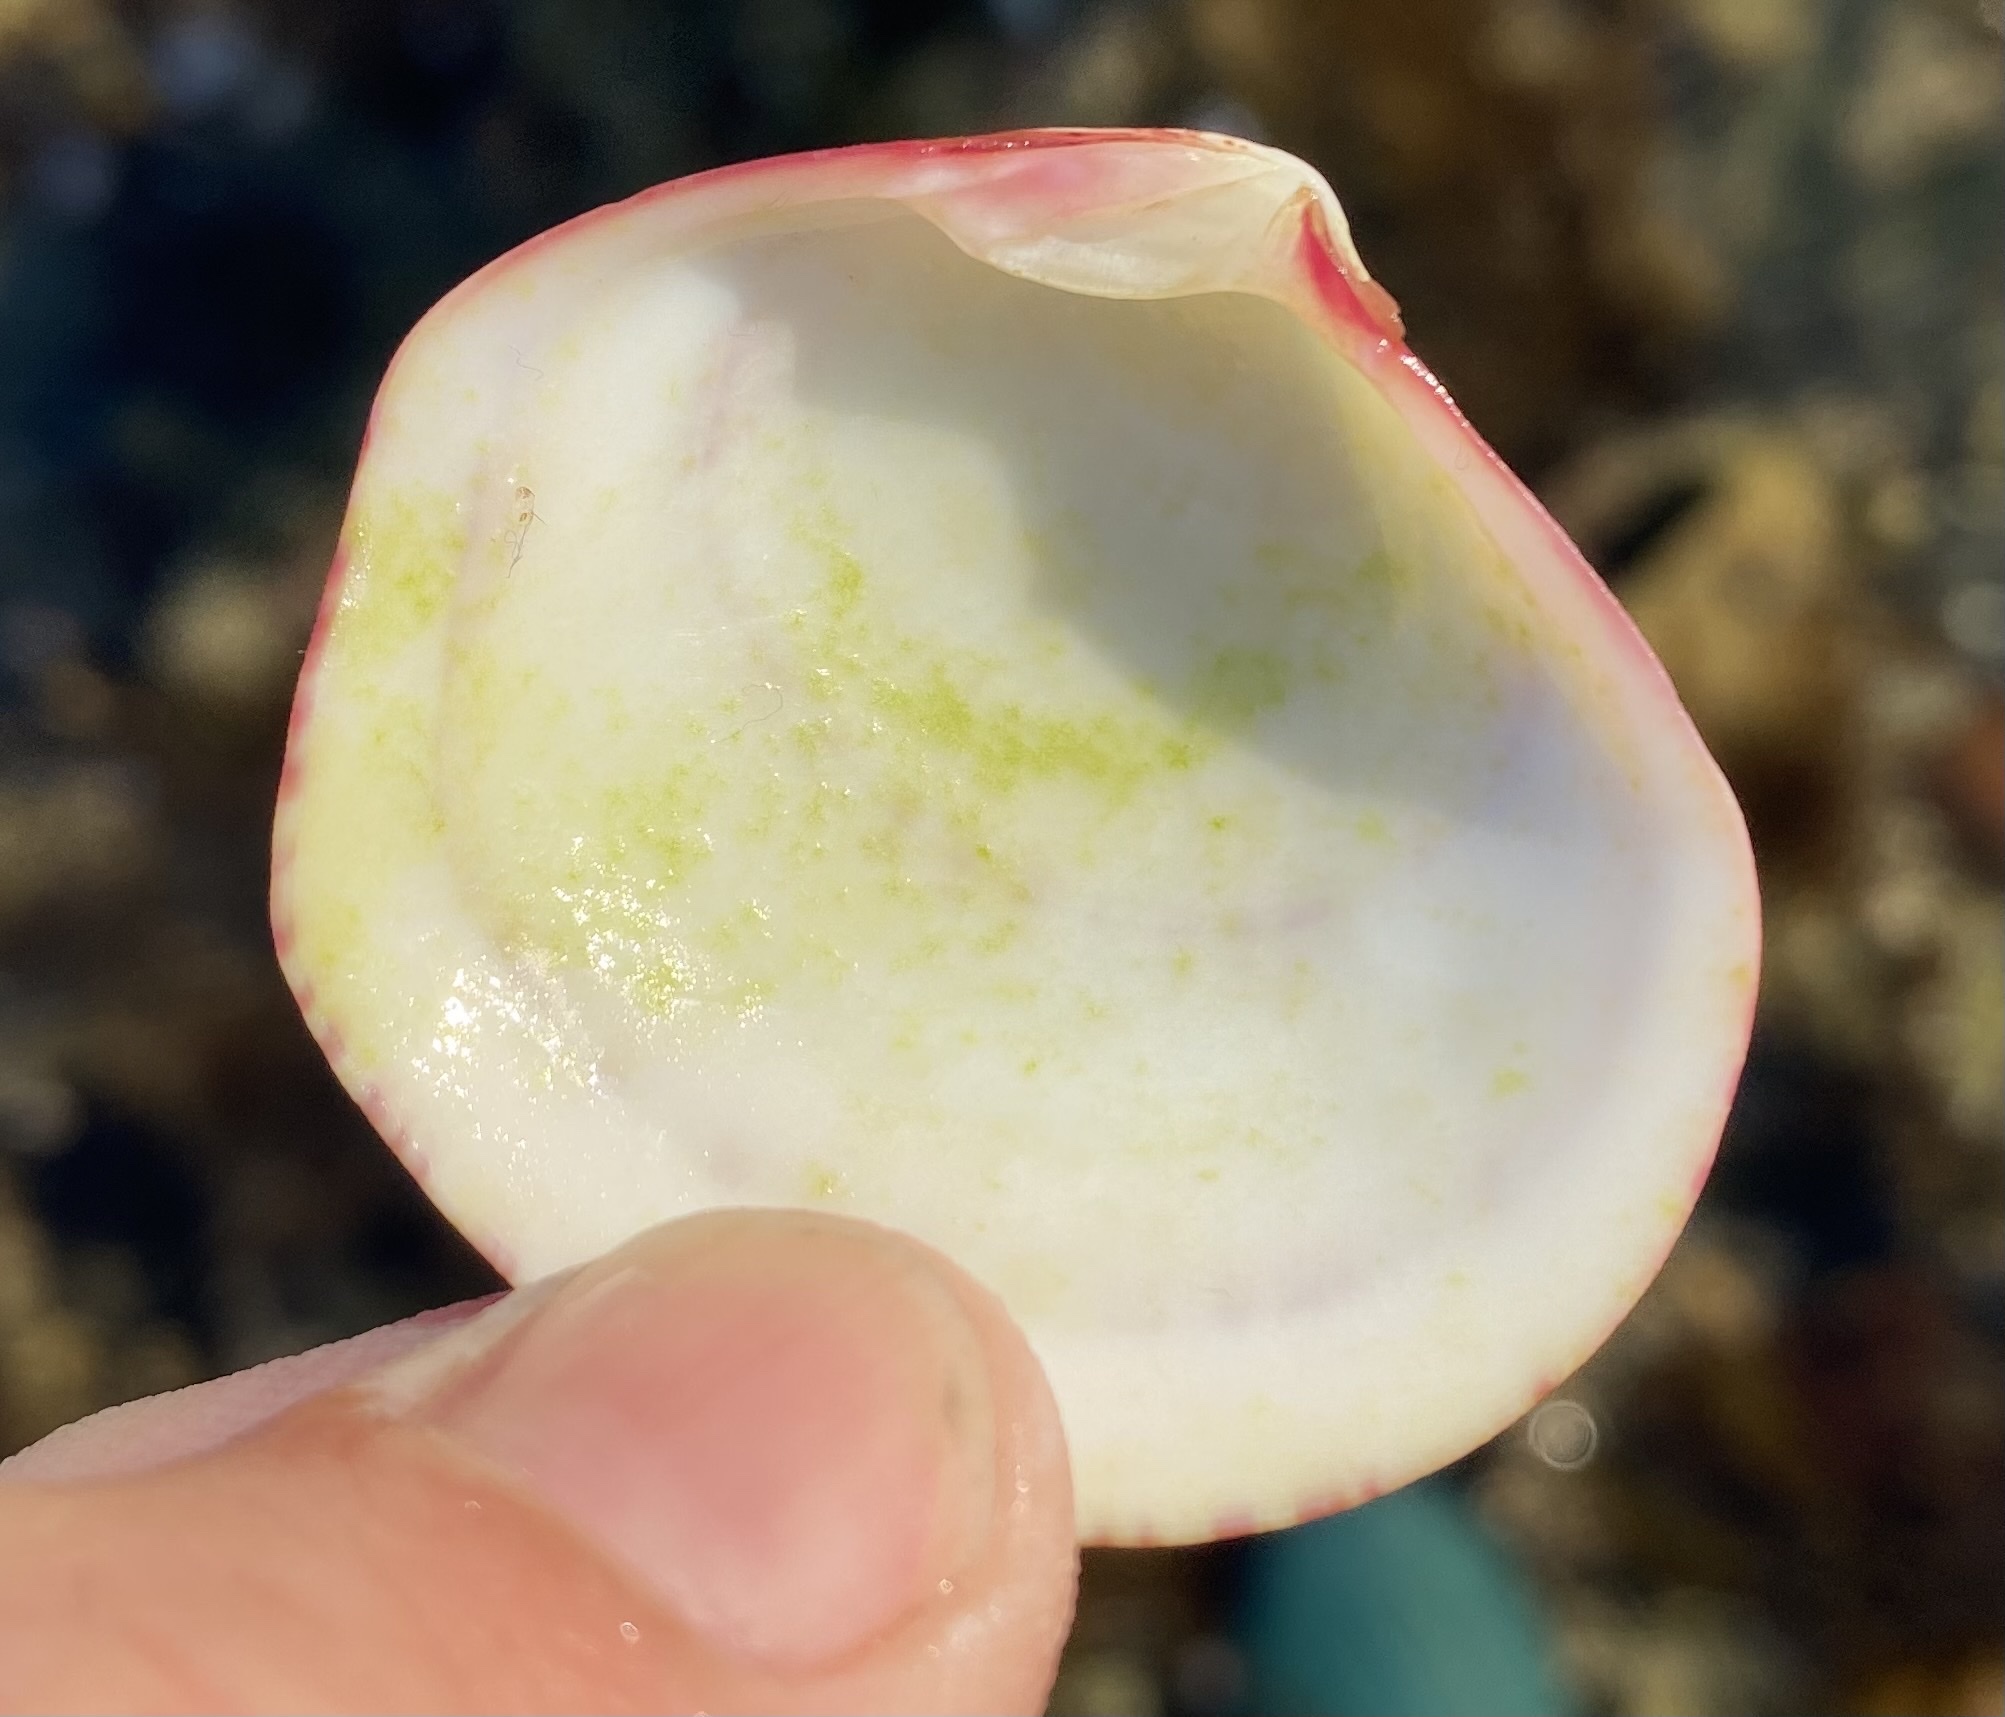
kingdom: Animalia
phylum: Mollusca
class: Bivalvia
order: Cardiida
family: Semelidae
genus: Semele
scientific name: Semele decisa
